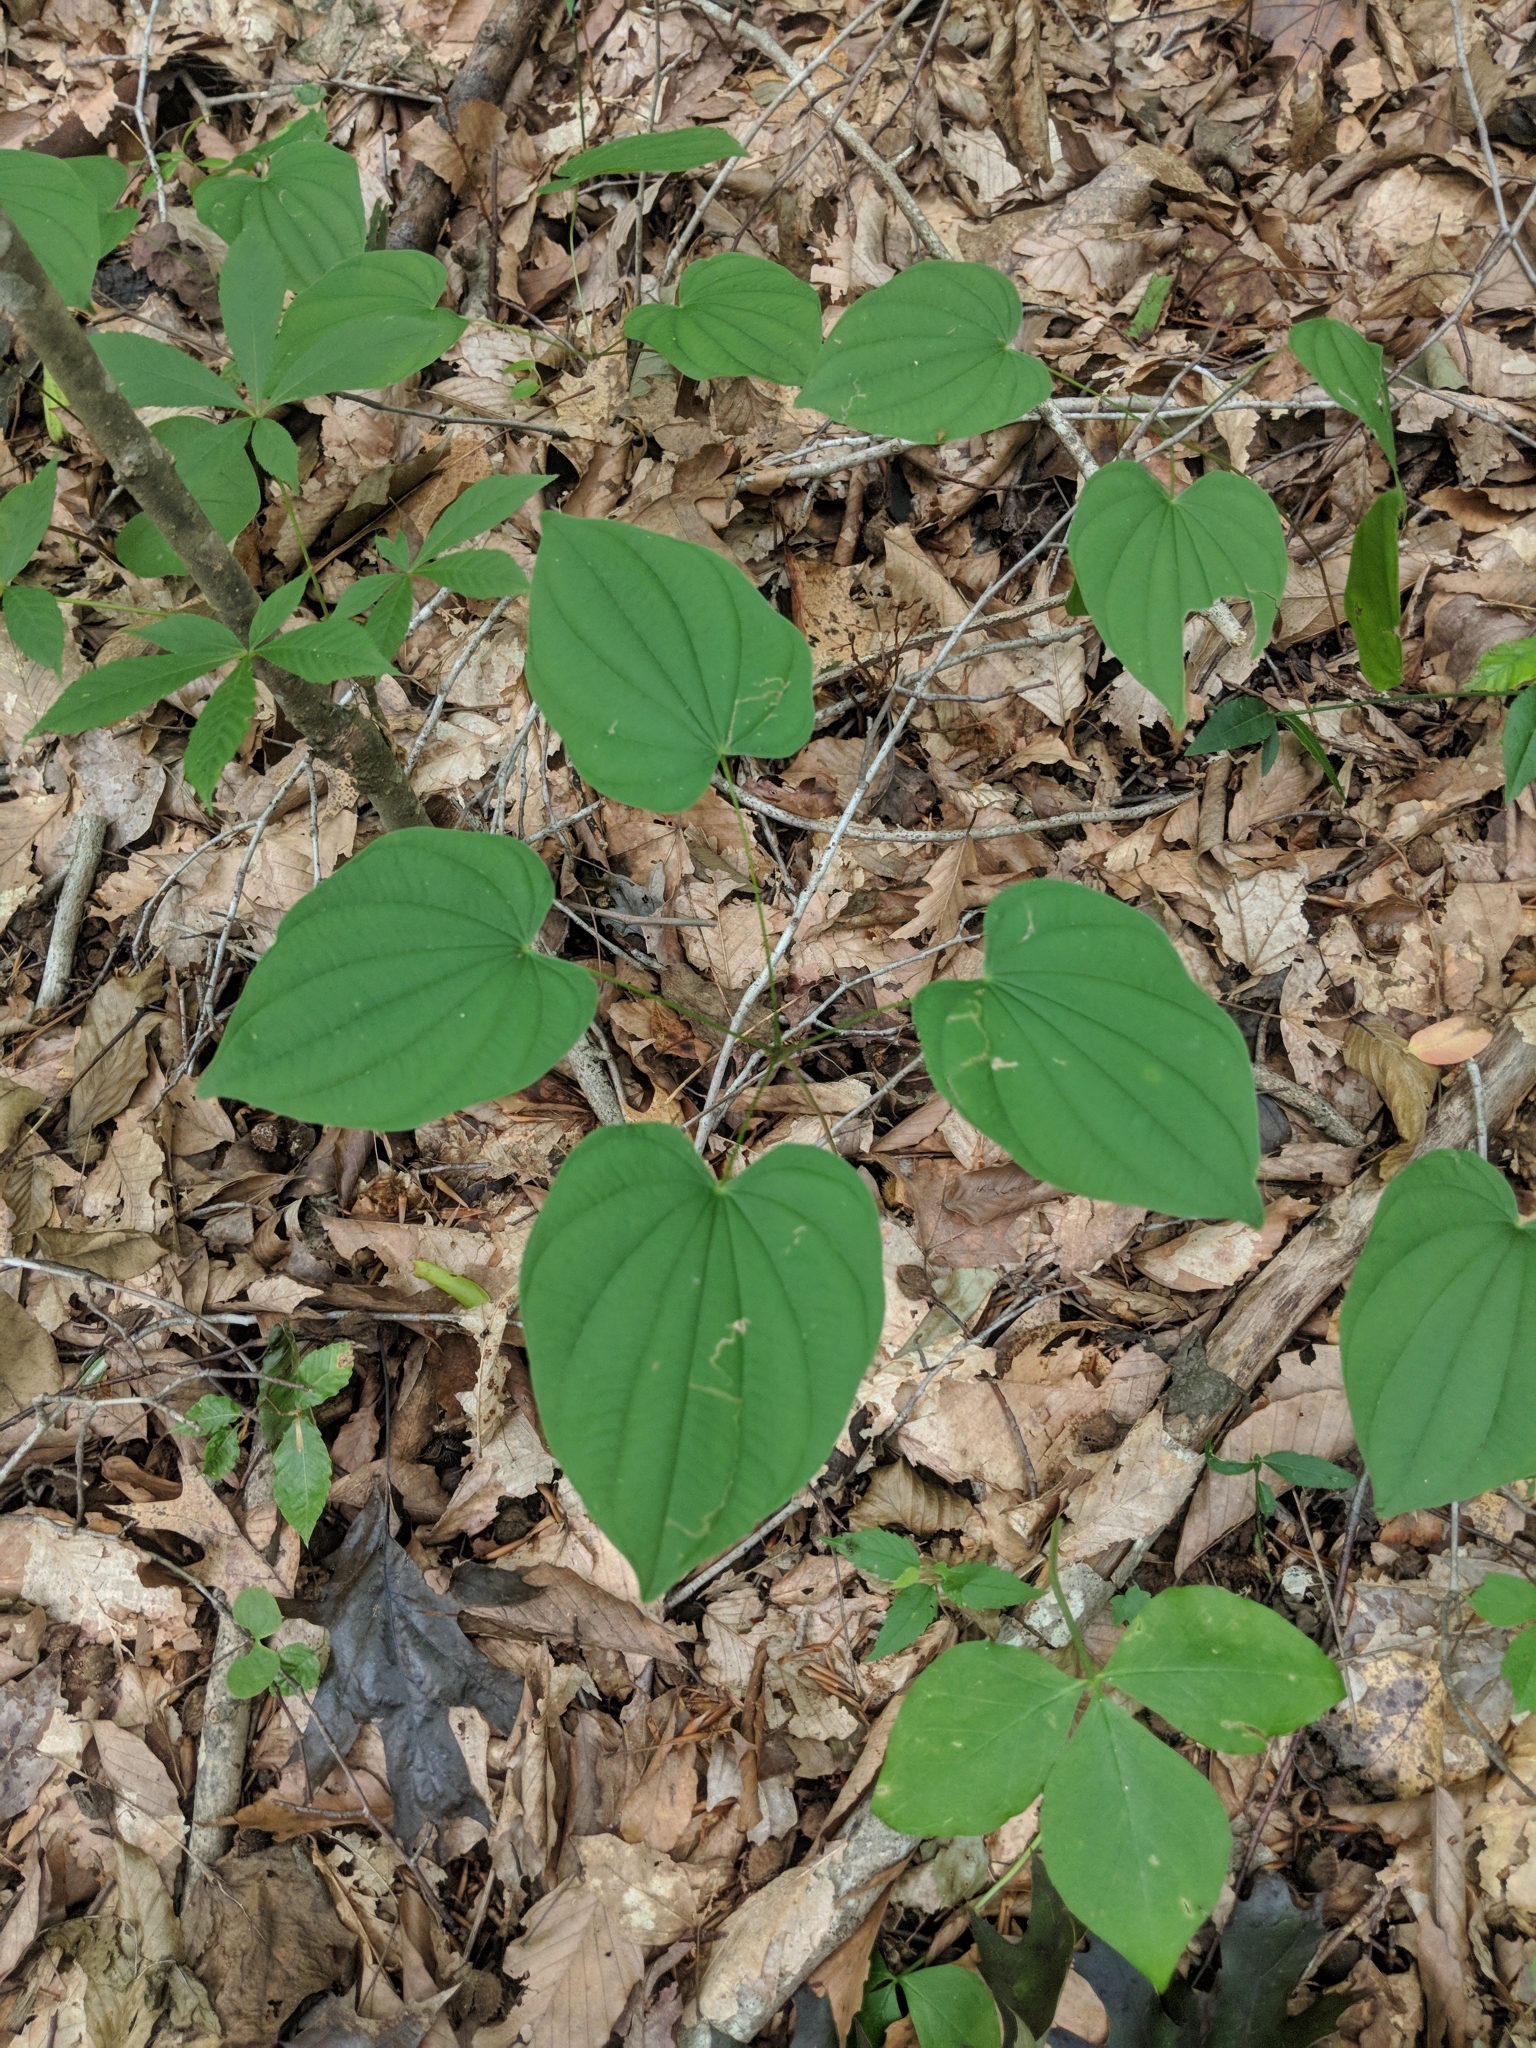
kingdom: Plantae
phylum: Tracheophyta
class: Liliopsida
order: Dioscoreales
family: Dioscoreaceae
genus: Dioscorea
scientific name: Dioscorea villosa
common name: Wild yam
